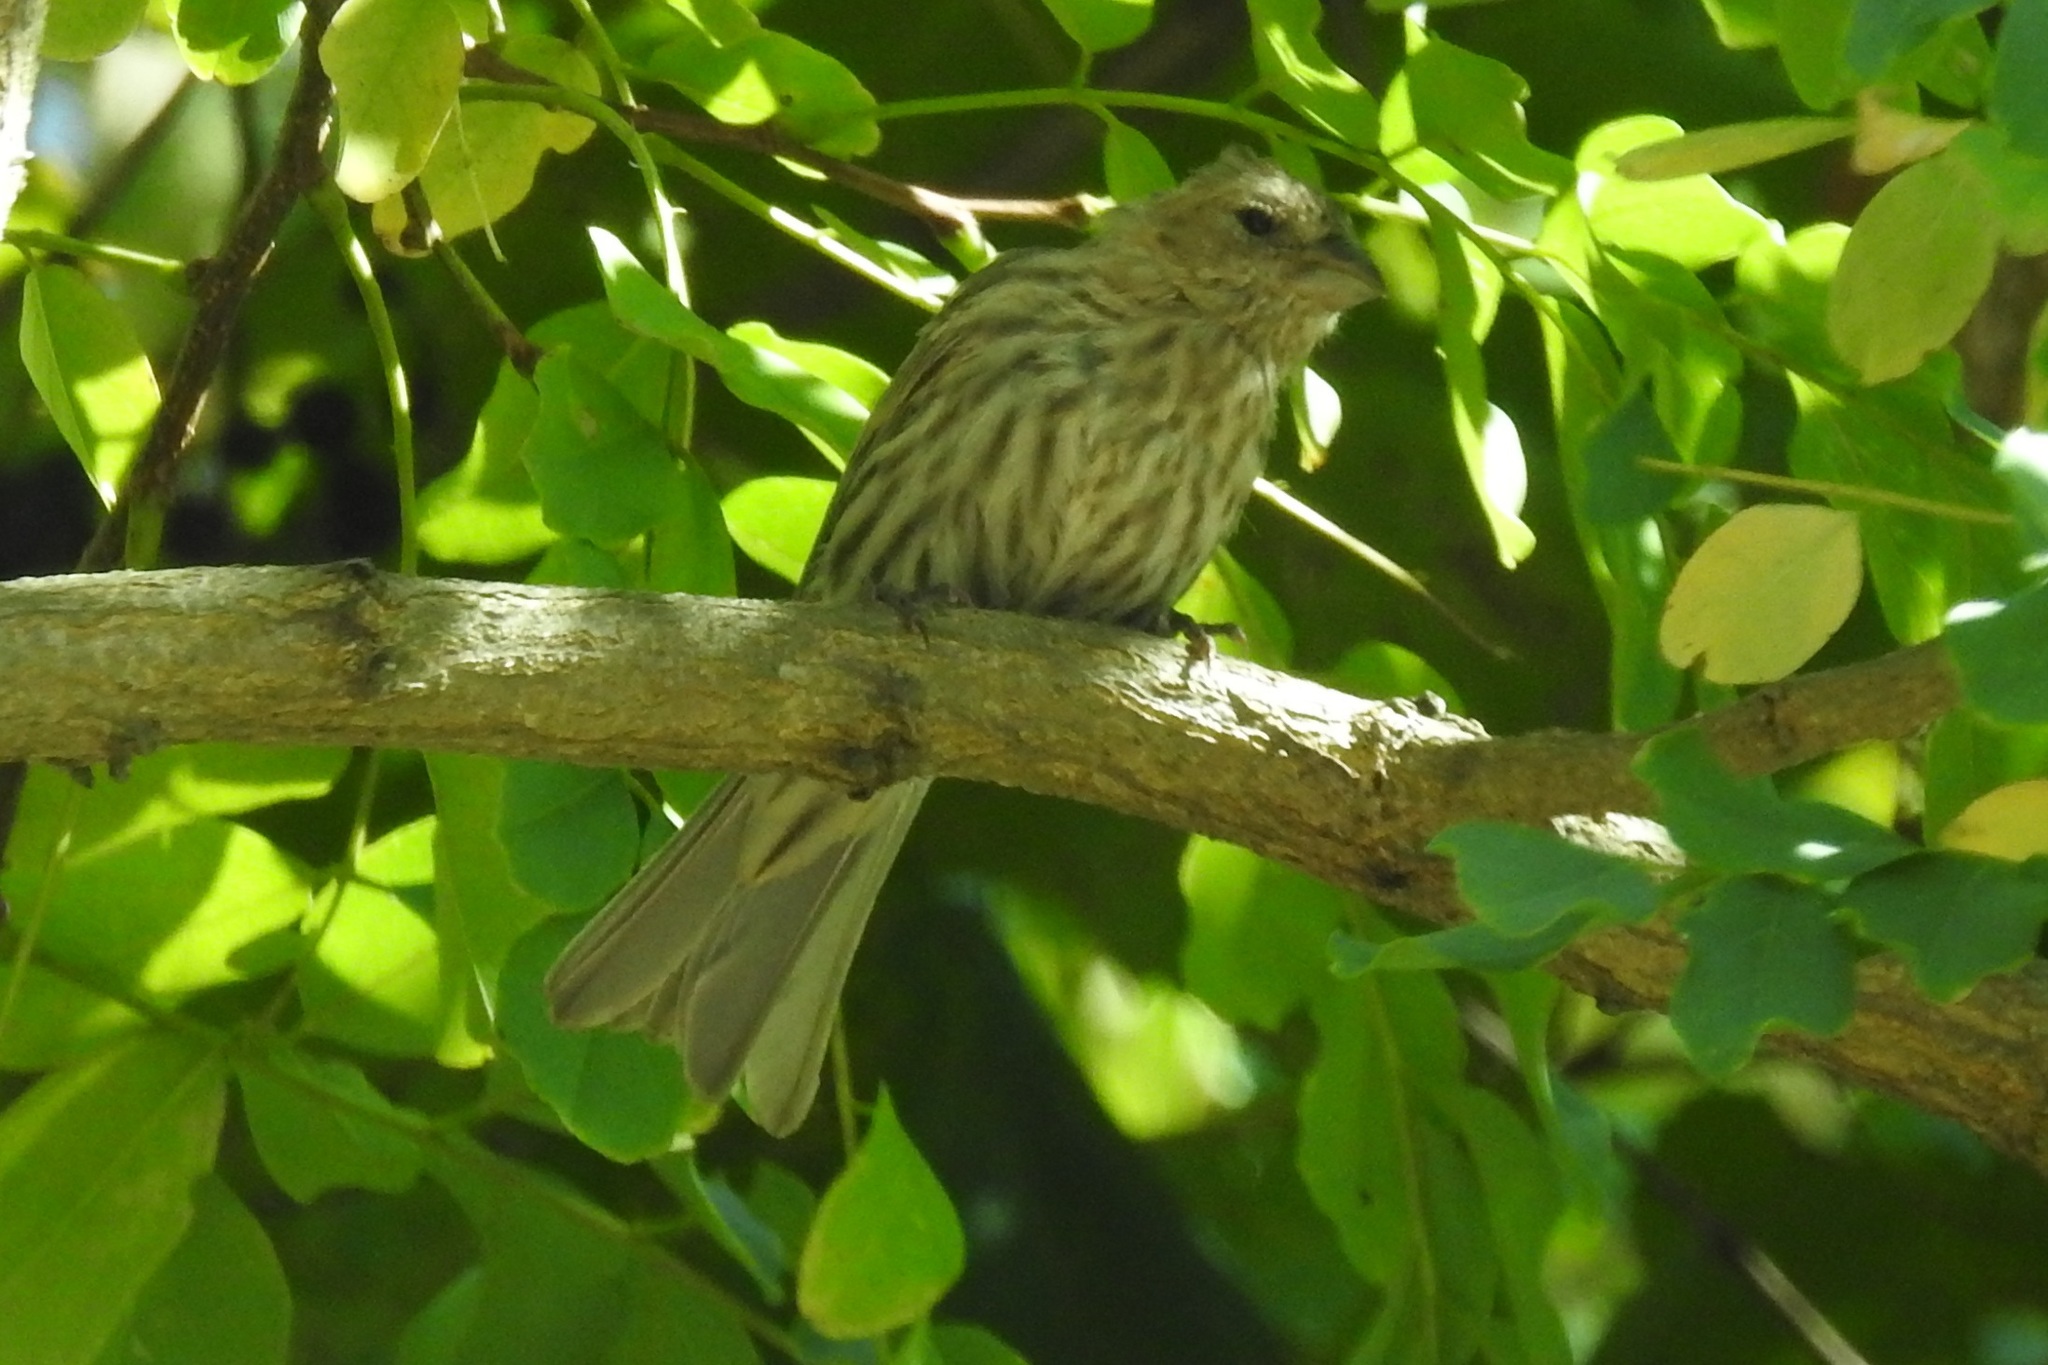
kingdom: Animalia
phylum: Chordata
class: Aves
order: Passeriformes
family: Fringillidae
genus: Haemorhous
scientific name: Haemorhous mexicanus
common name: House finch
